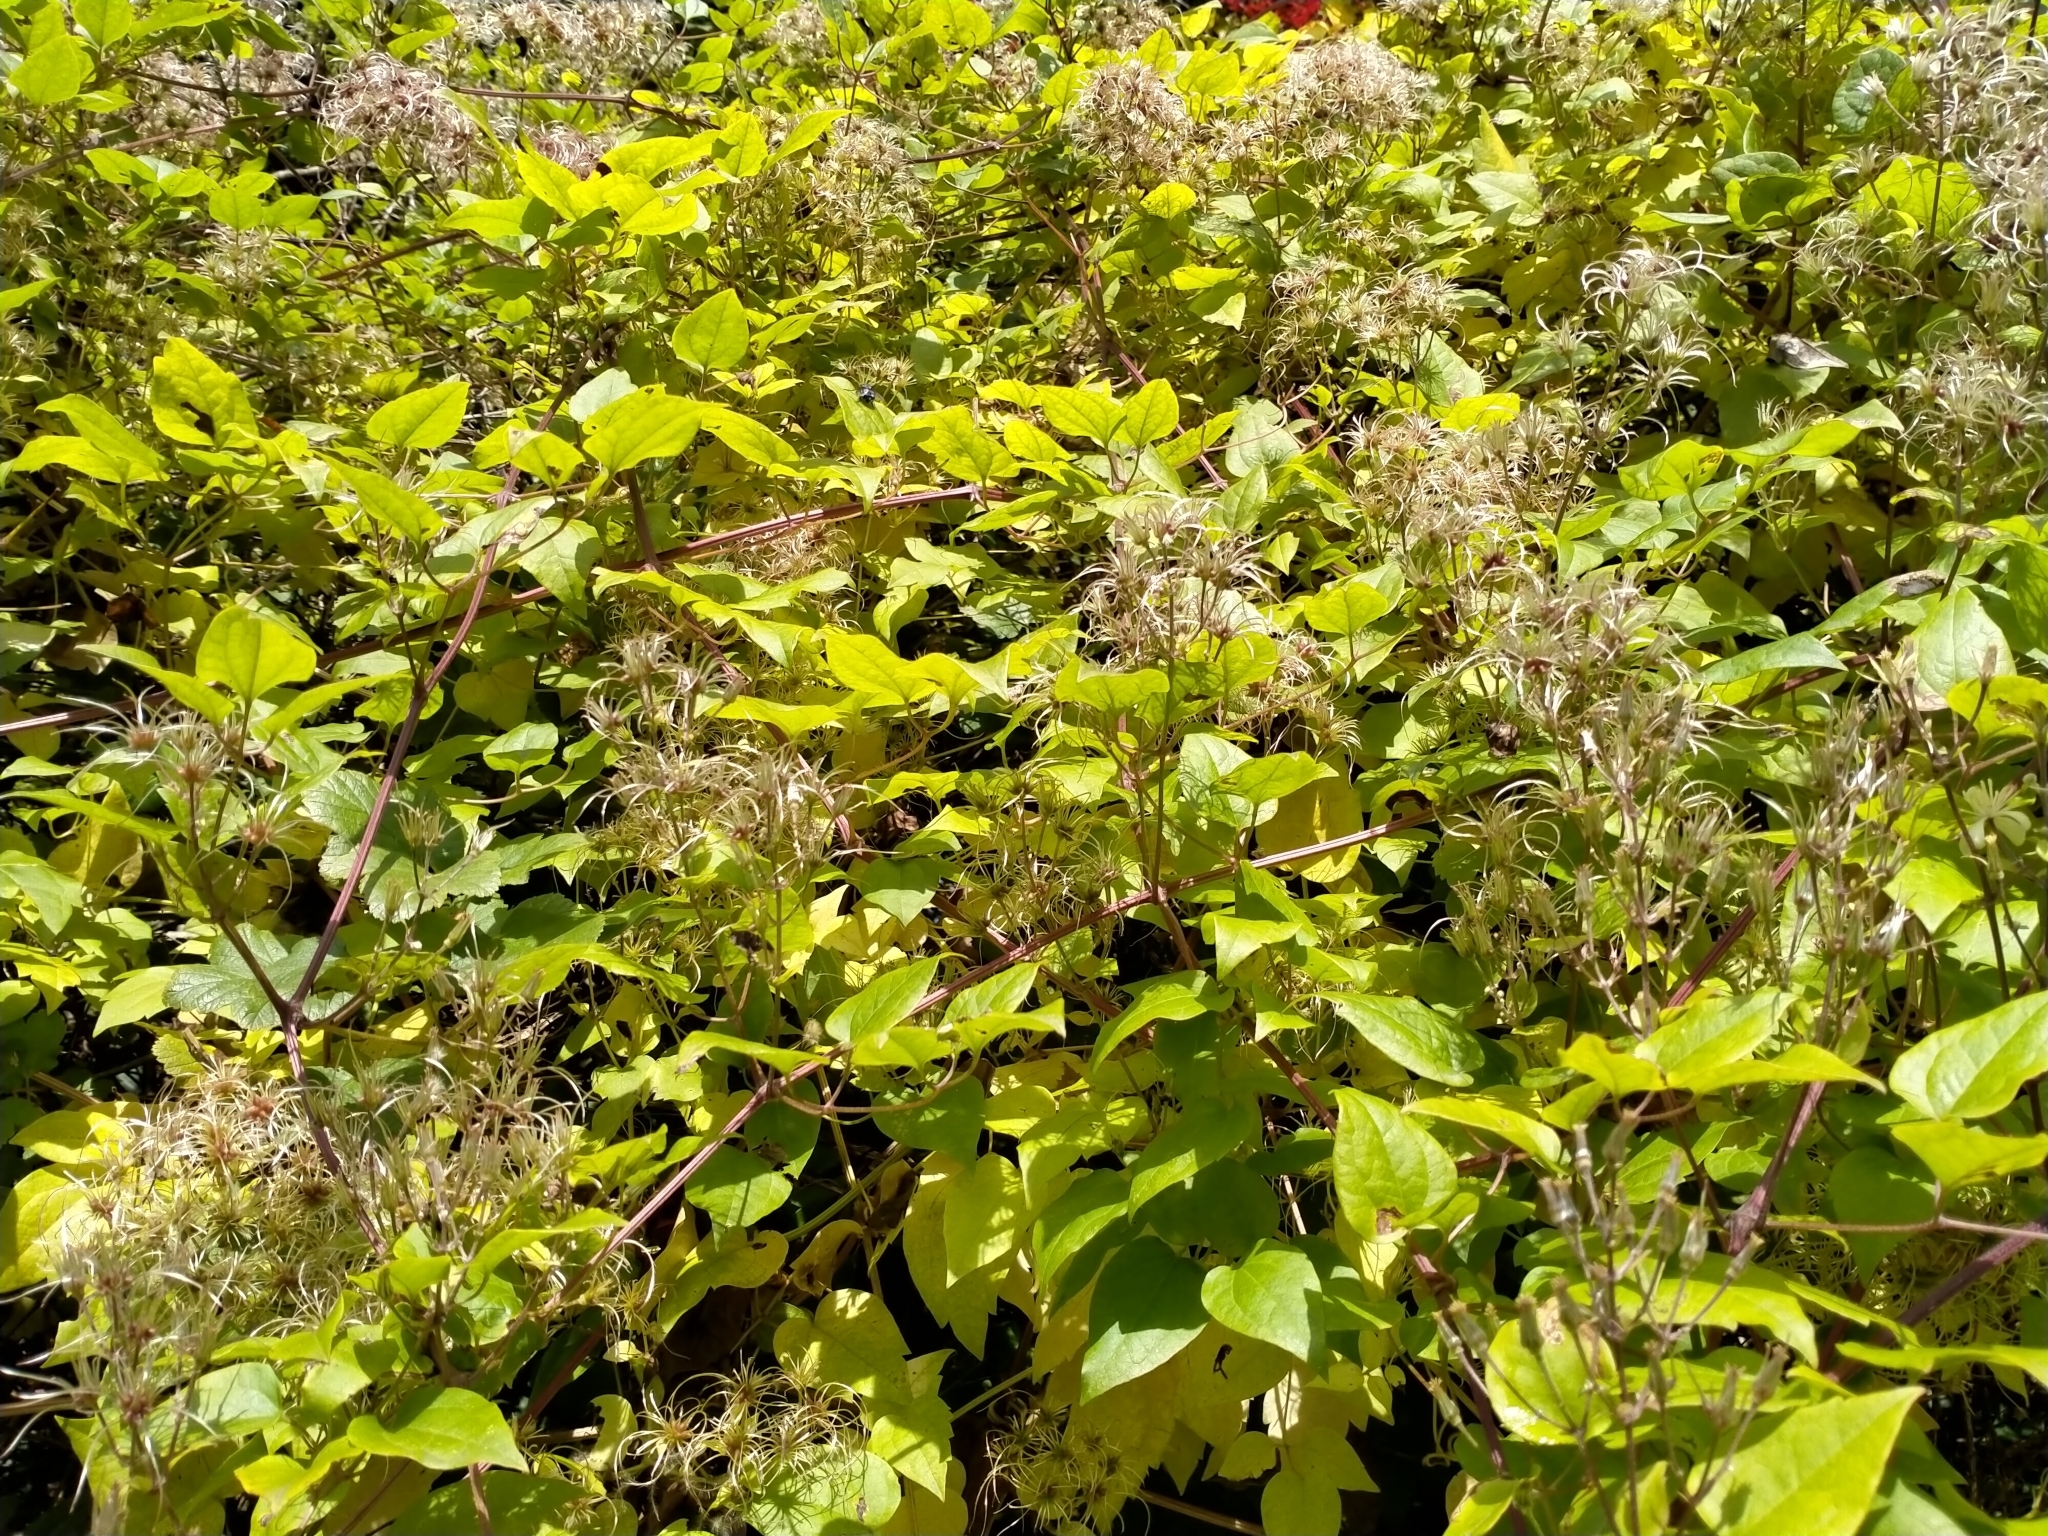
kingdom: Plantae
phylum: Tracheophyta
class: Magnoliopsida
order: Ranunculales
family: Ranunculaceae
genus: Clematis
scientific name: Clematis vitalba
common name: Evergreen clematis
